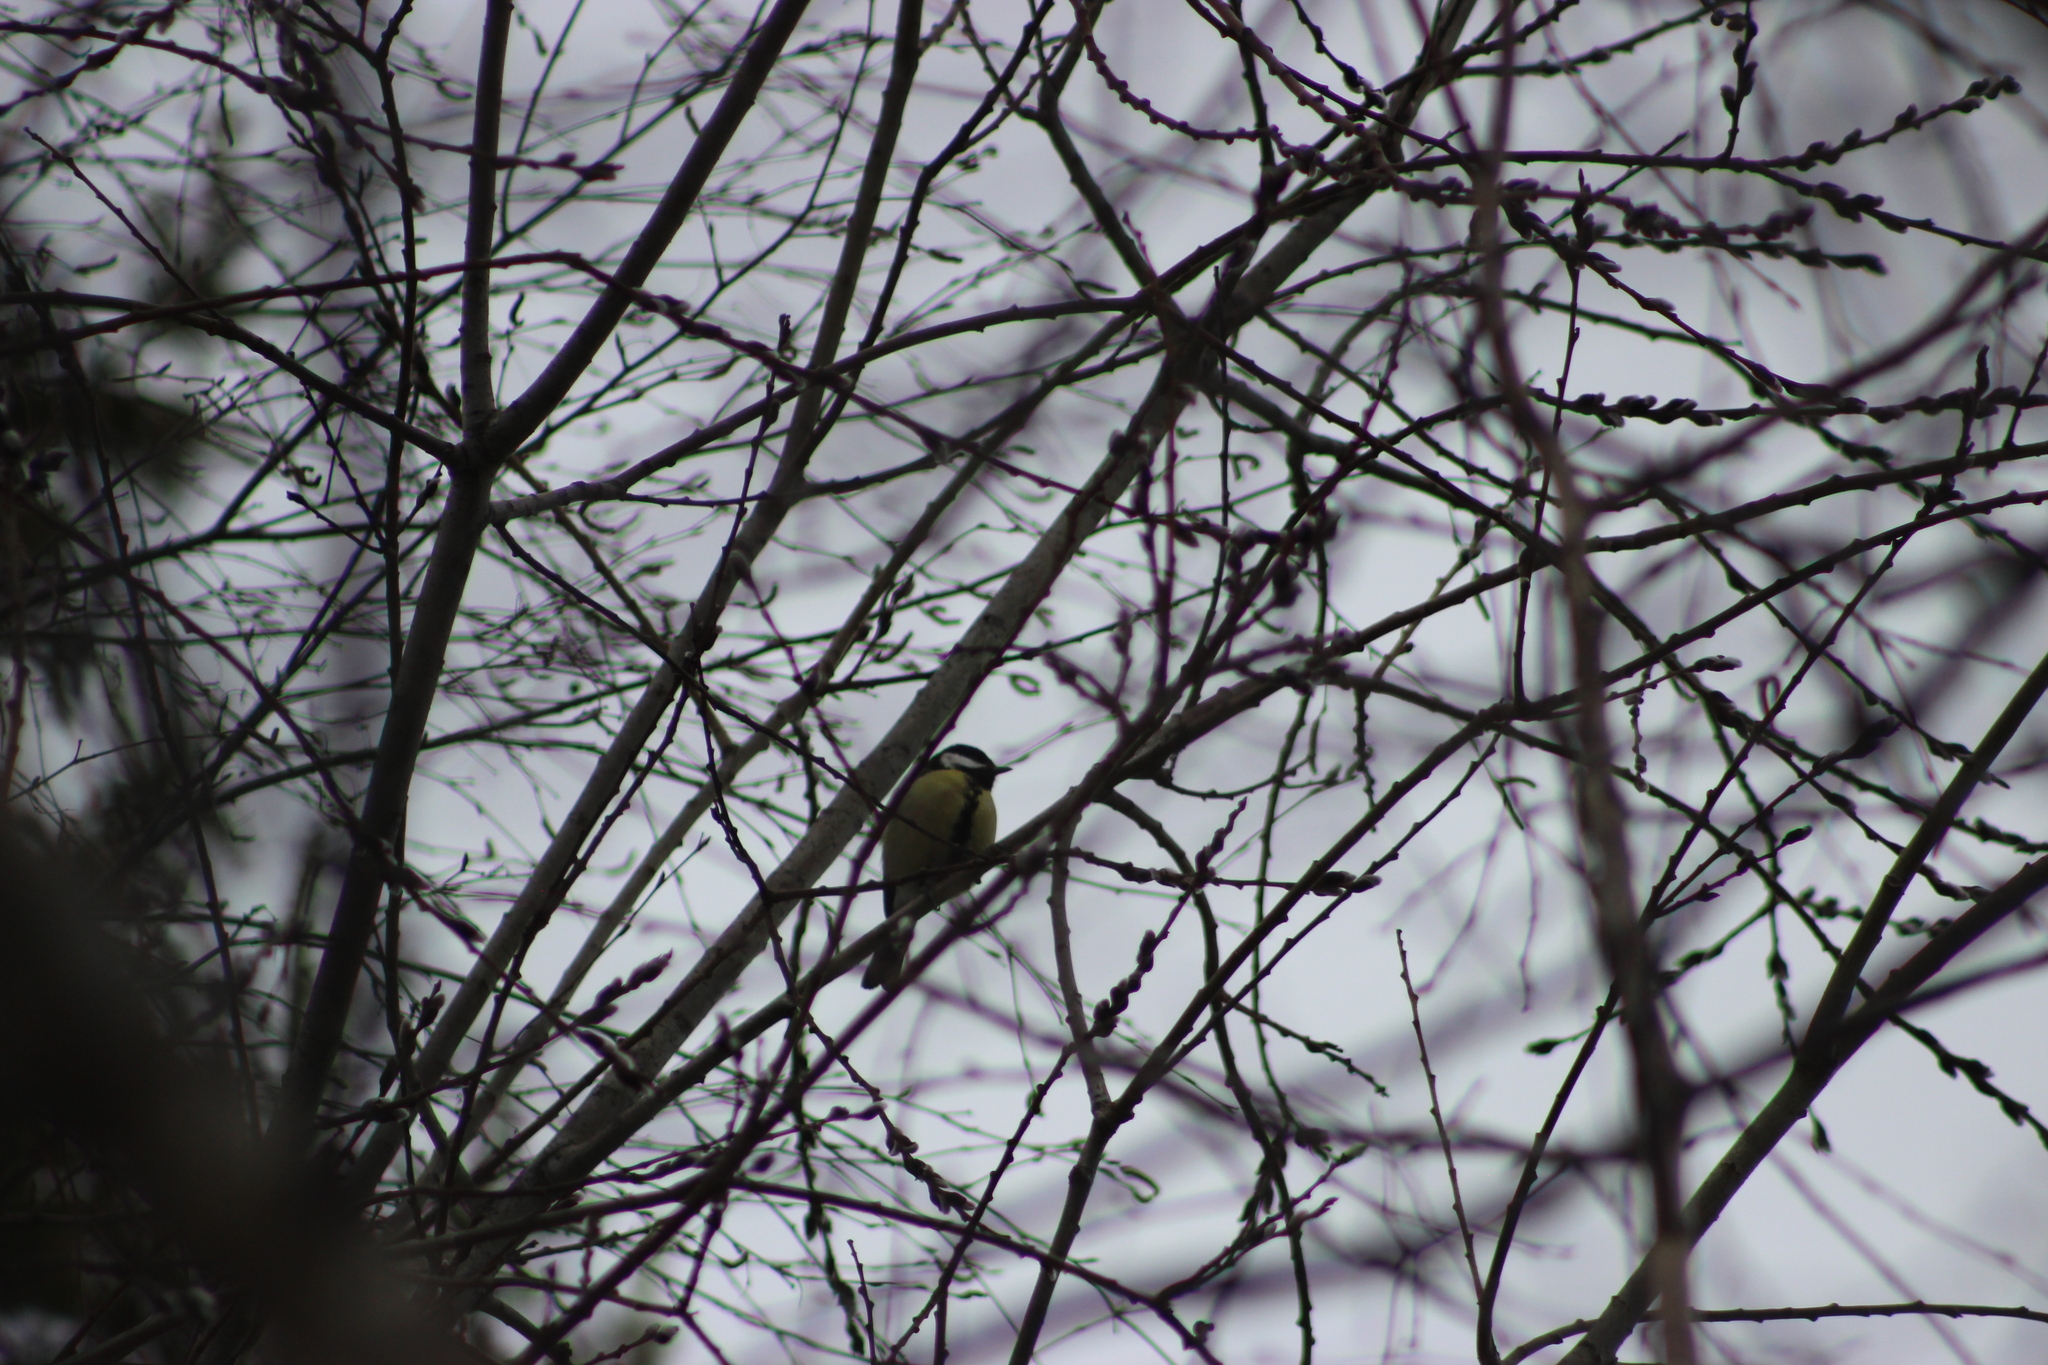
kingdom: Animalia
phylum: Chordata
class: Aves
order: Passeriformes
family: Paridae
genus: Parus
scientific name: Parus major
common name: Great tit
